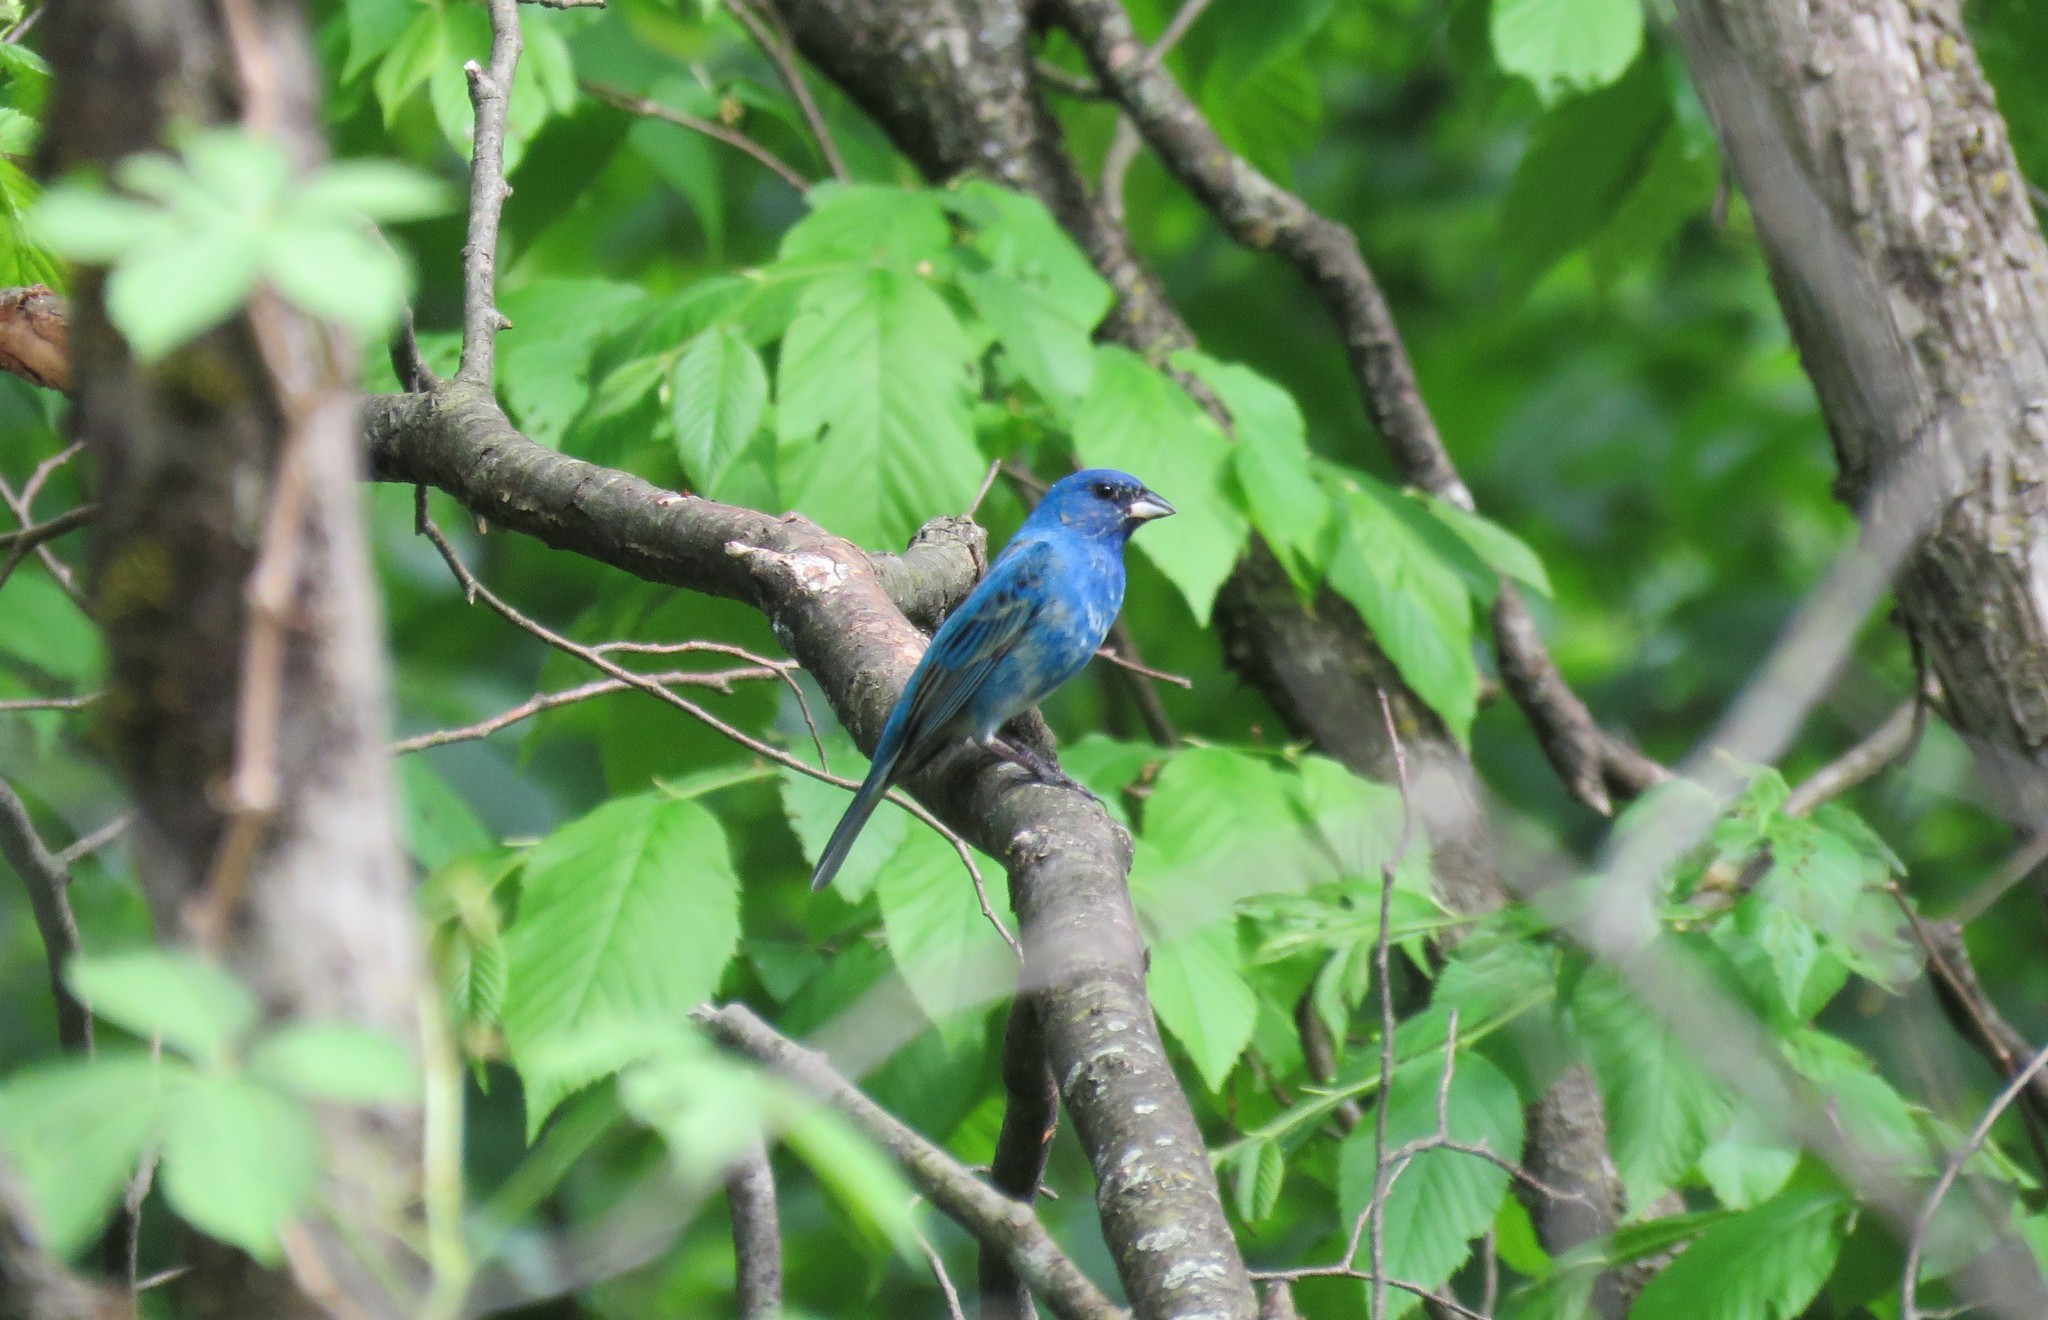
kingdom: Animalia
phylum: Chordata
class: Aves
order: Passeriformes
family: Cardinalidae
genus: Passerina
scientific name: Passerina cyanea
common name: Indigo bunting
